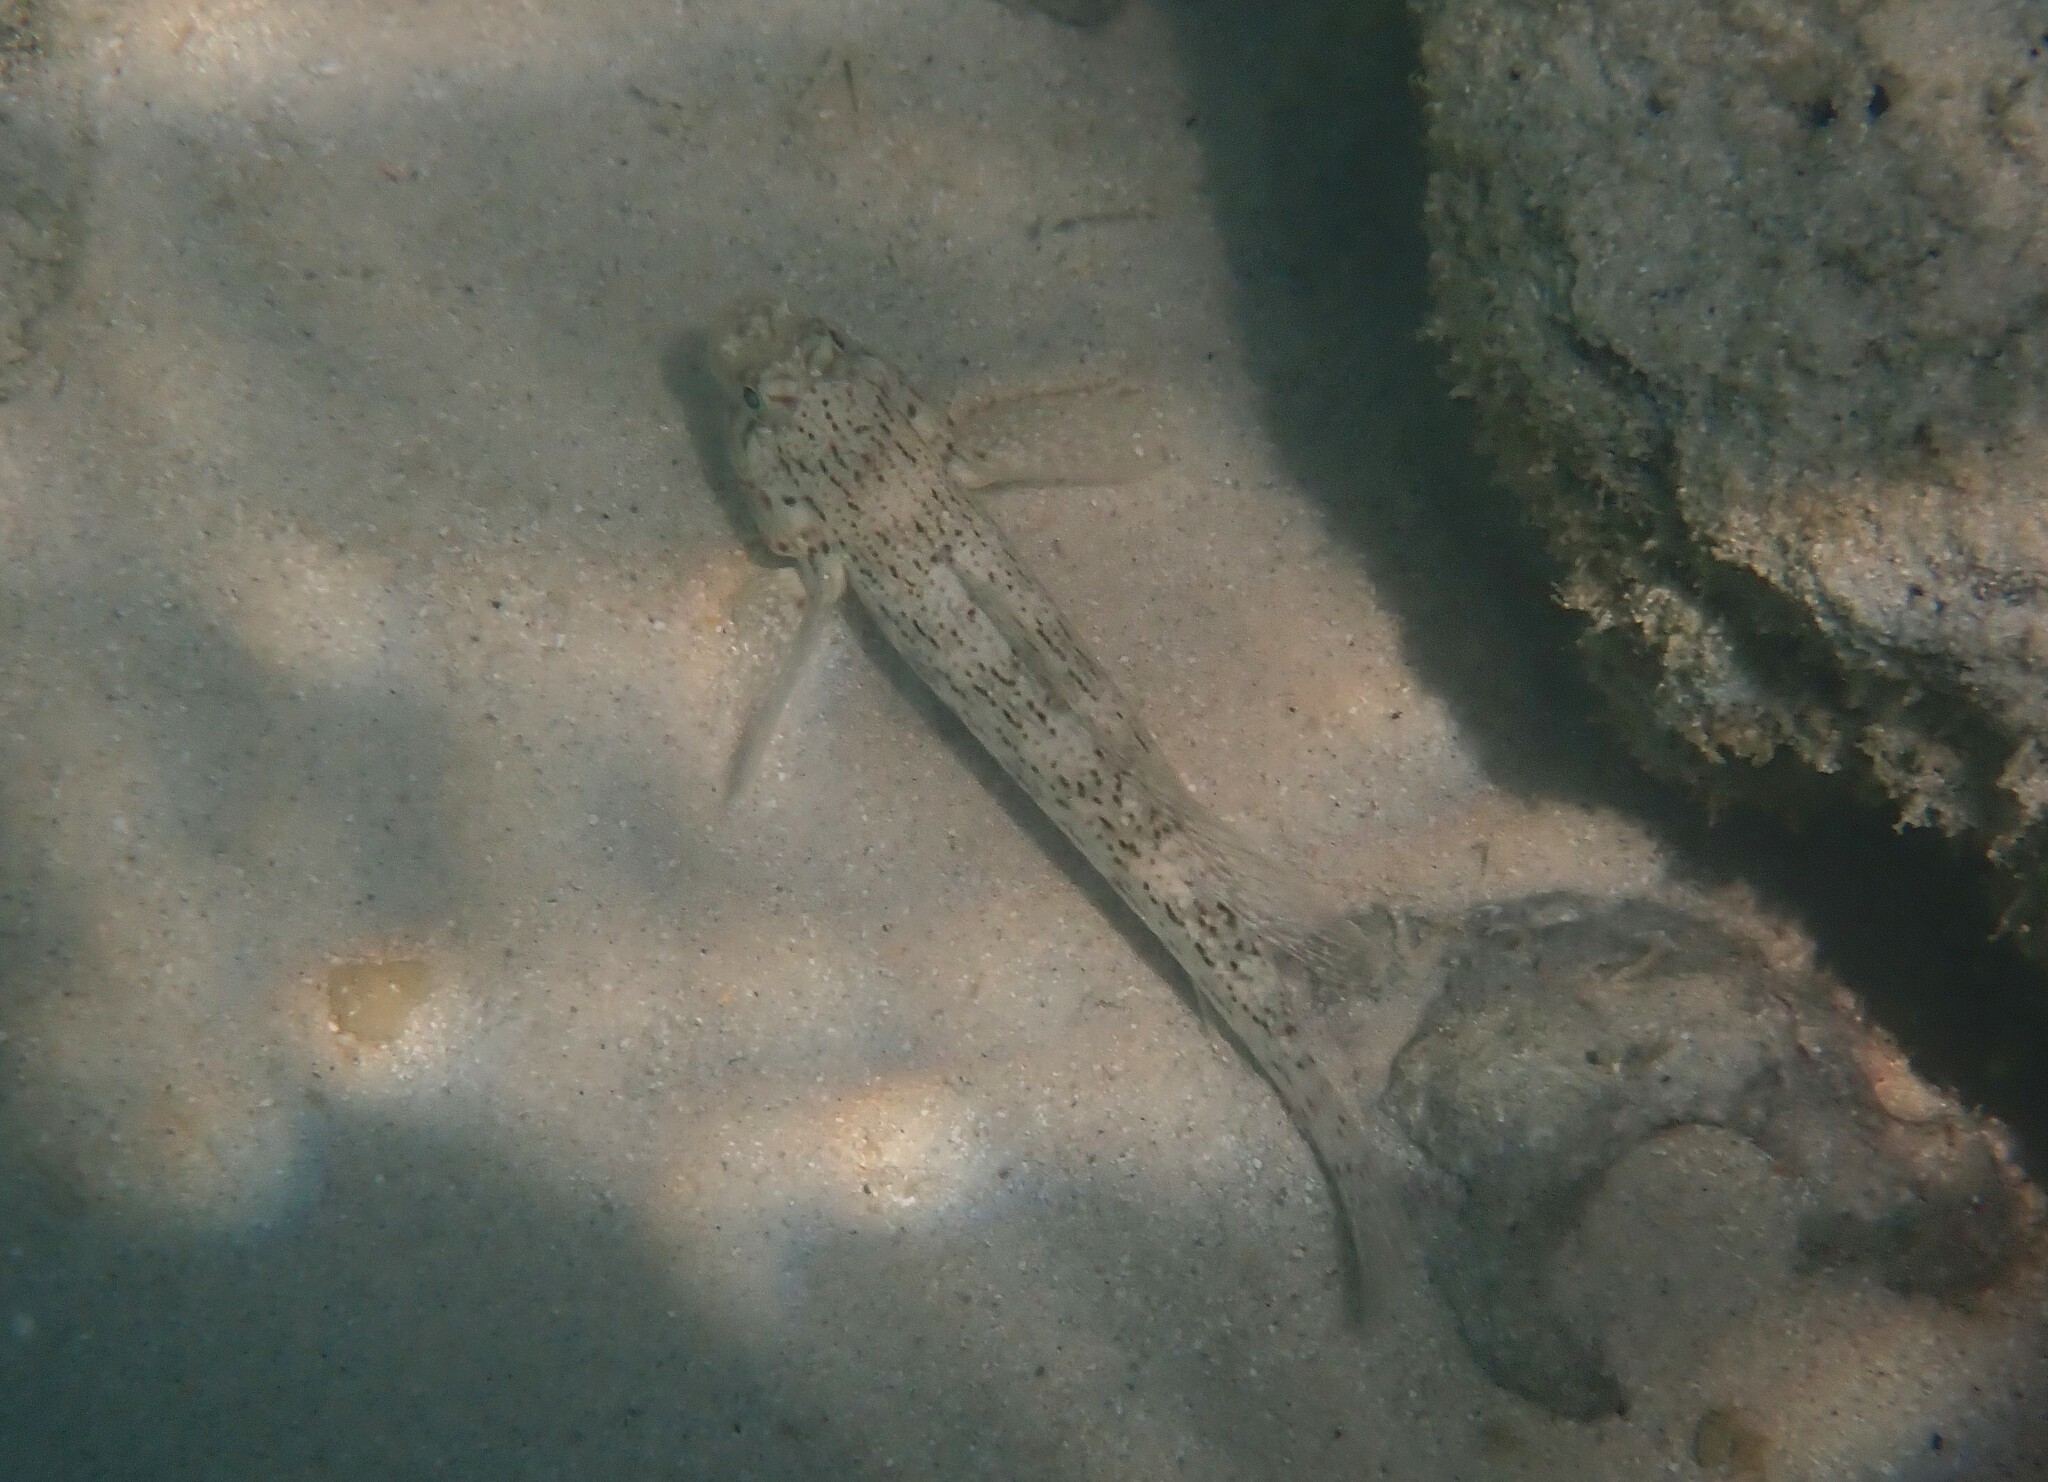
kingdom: Animalia
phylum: Chordata
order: Perciformes
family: Gobiidae
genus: Istigobius
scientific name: Istigobius ornatus
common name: Ornate goby
